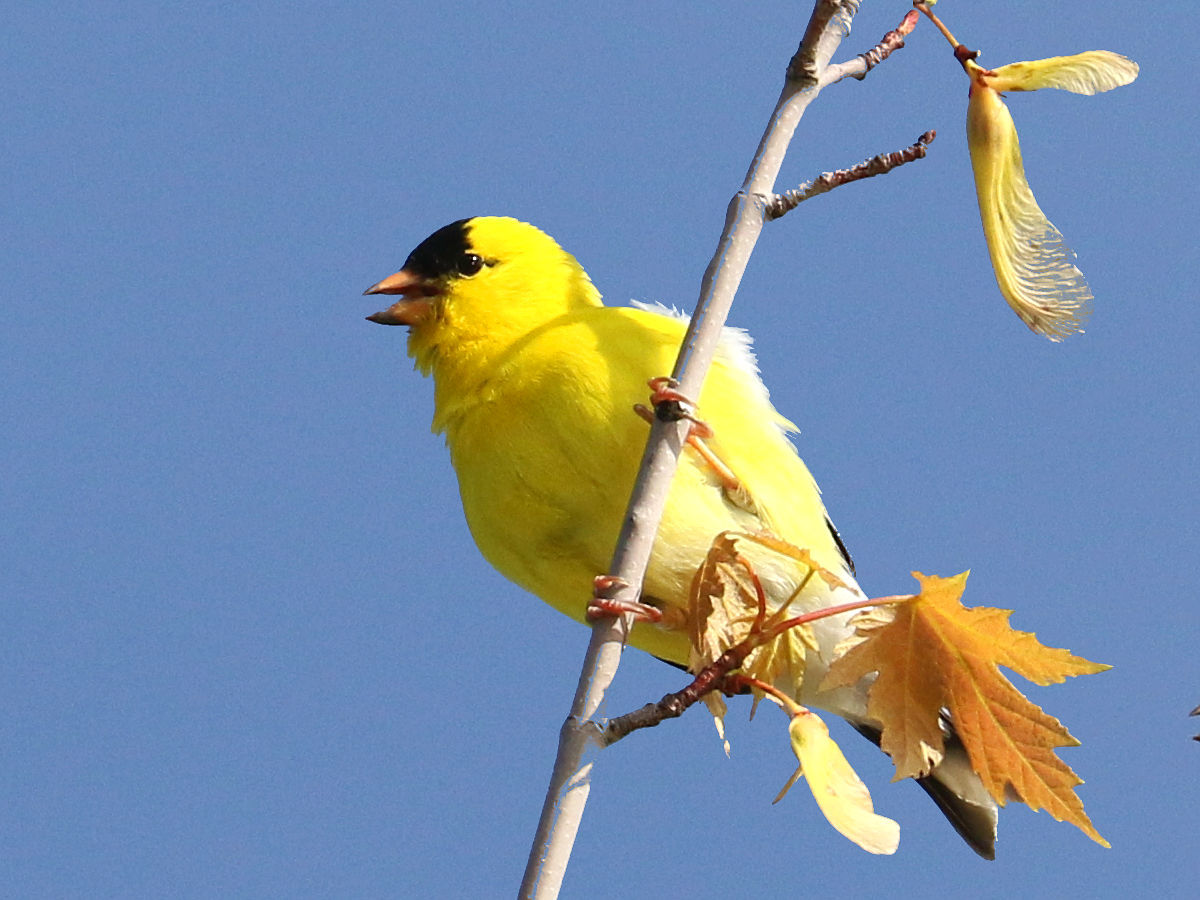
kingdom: Animalia
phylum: Chordata
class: Aves
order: Passeriformes
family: Fringillidae
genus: Spinus
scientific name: Spinus tristis
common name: American goldfinch
